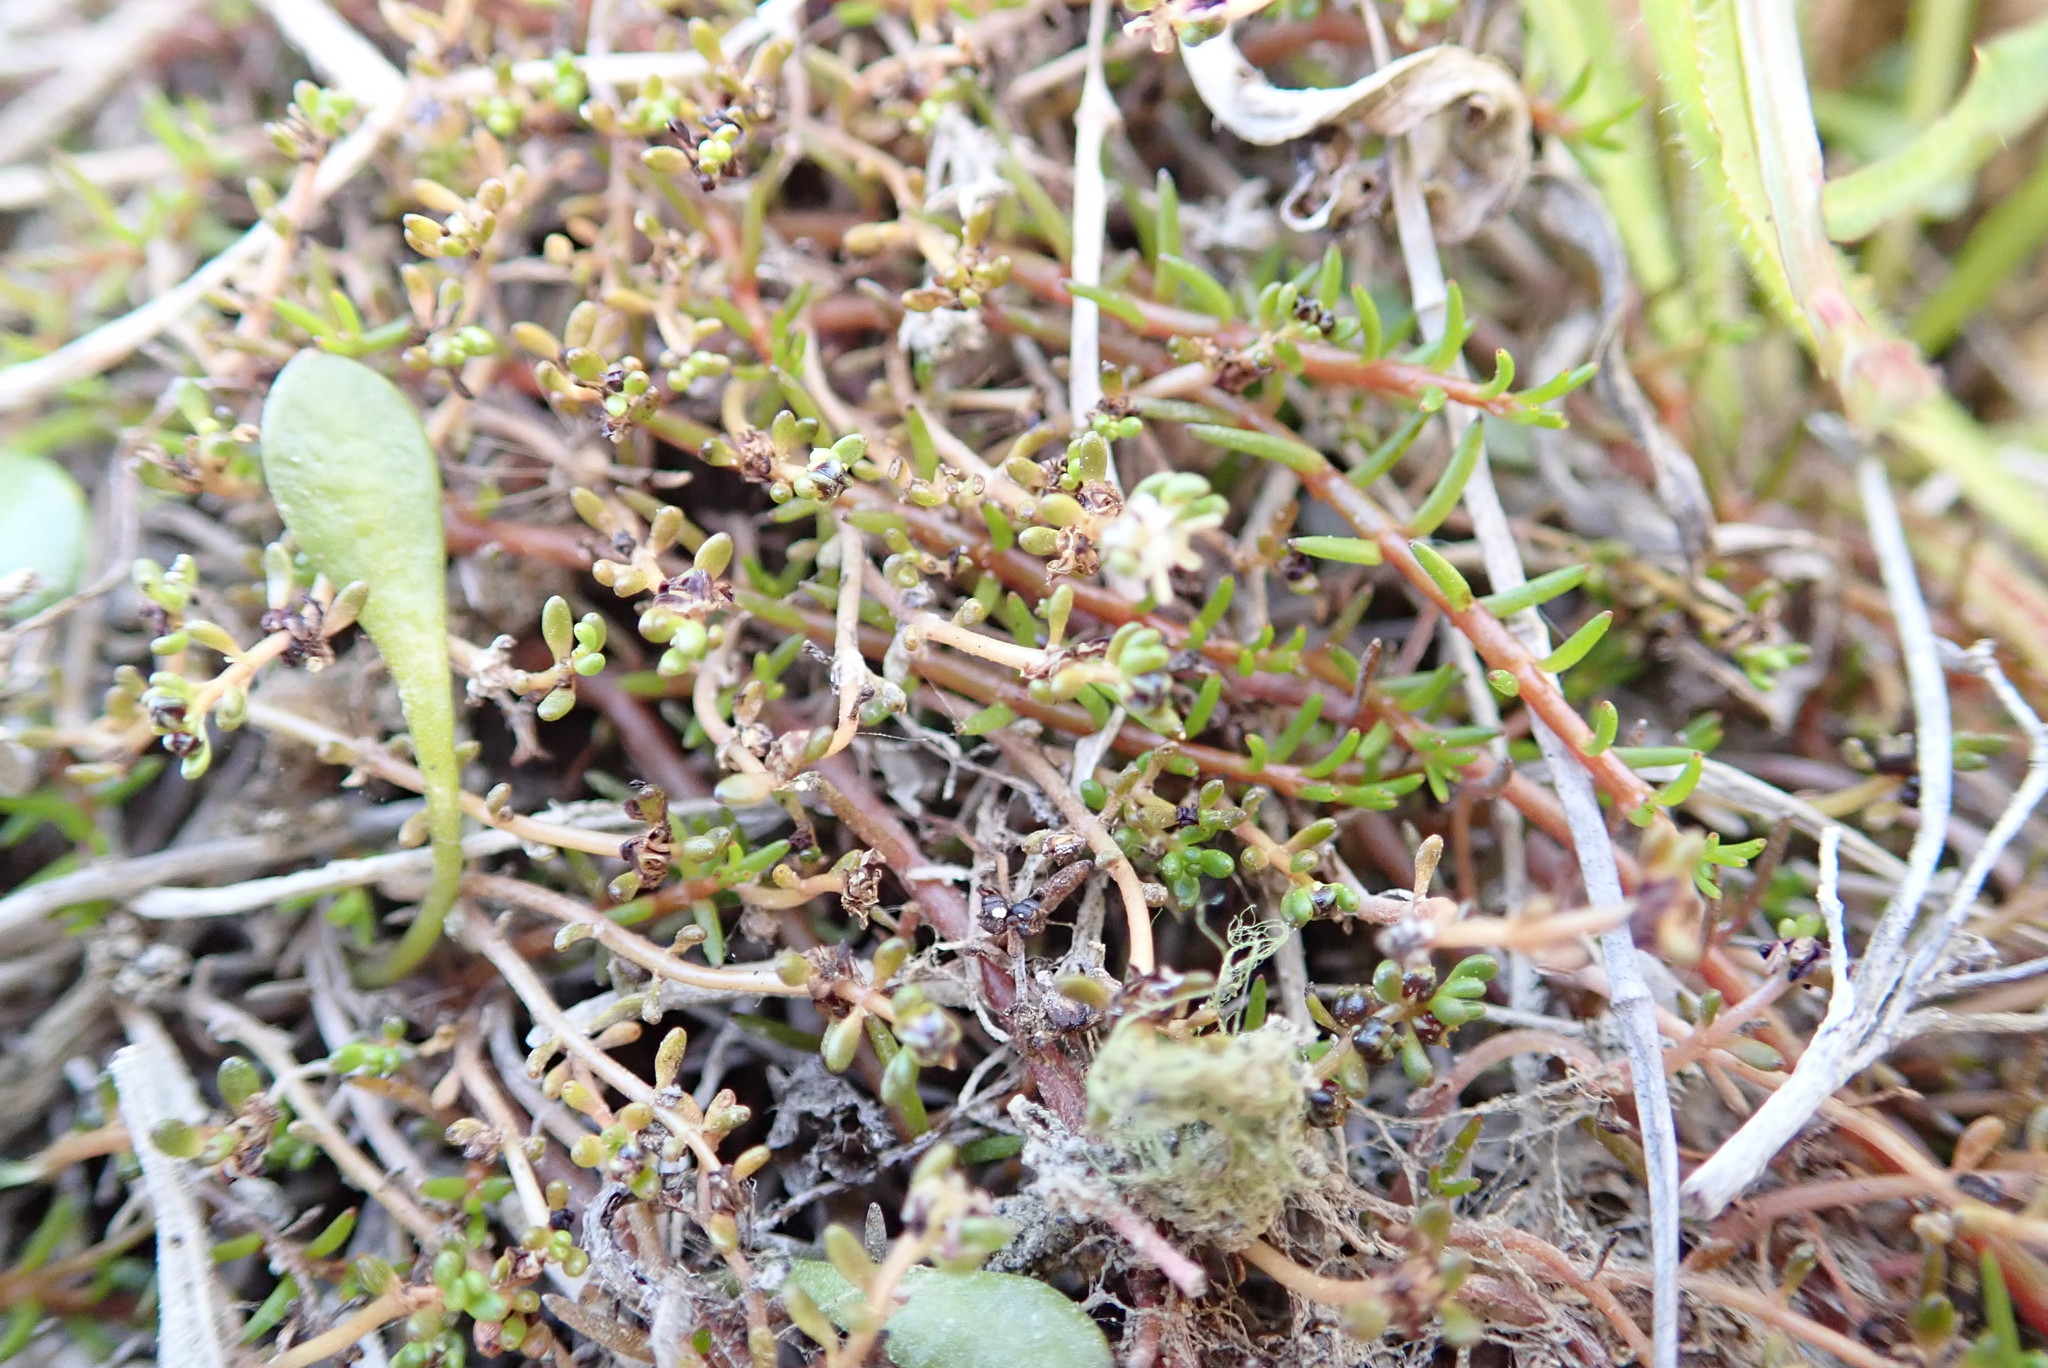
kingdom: Plantae
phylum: Tracheophyta
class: Magnoliopsida
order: Saxifragales
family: Haloragaceae
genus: Myriophyllum
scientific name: Myriophyllum votschii
